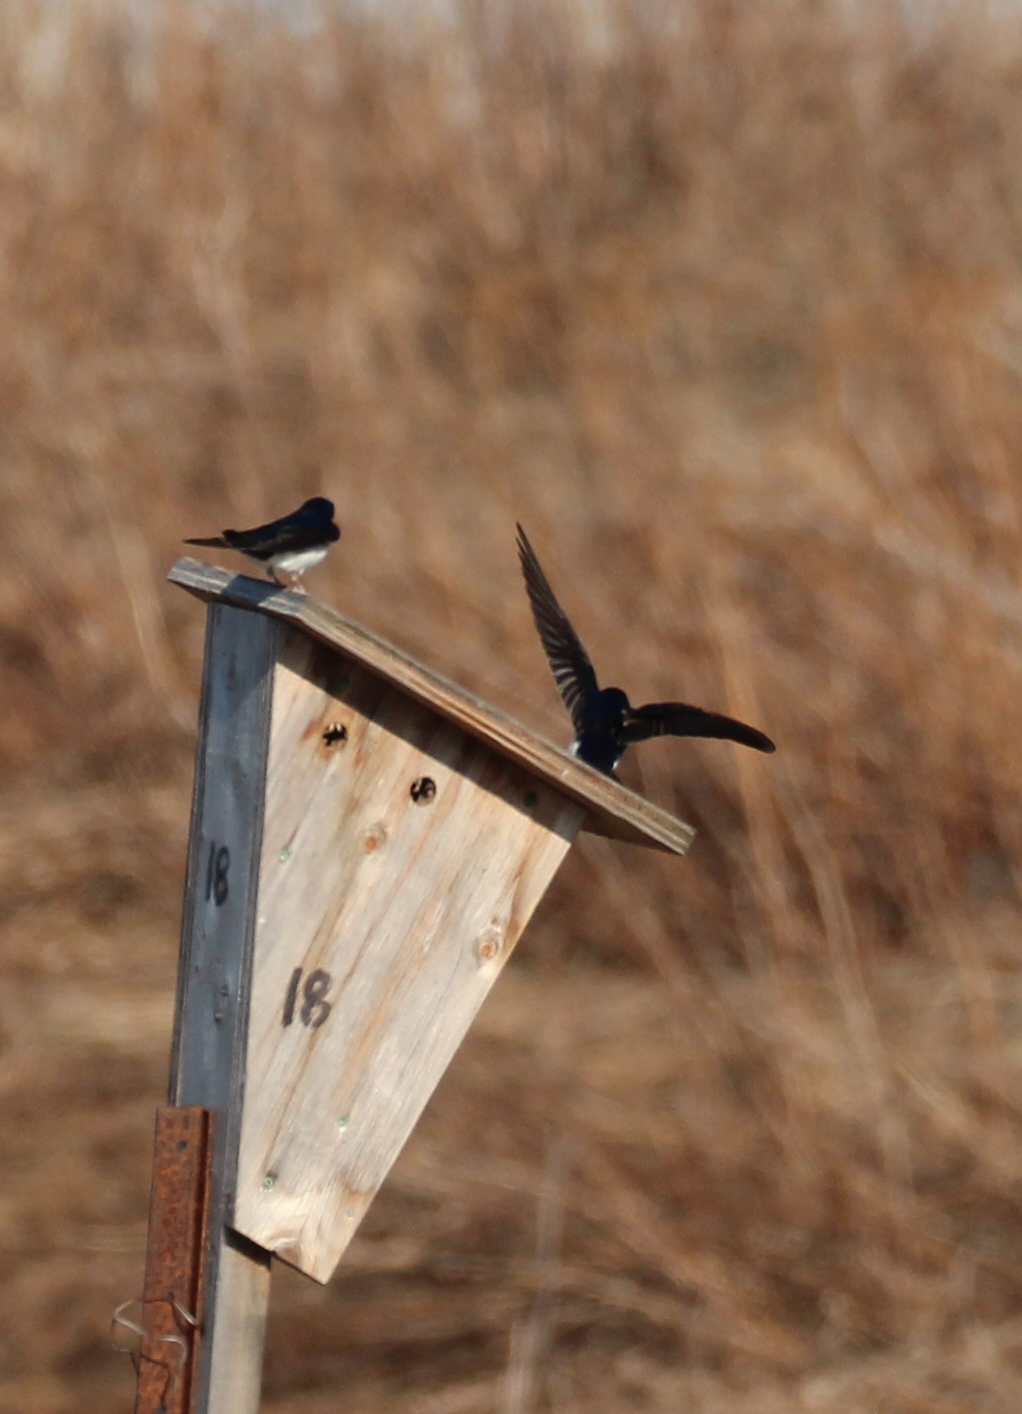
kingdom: Animalia
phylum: Chordata
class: Aves
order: Passeriformes
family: Hirundinidae
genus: Tachycineta
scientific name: Tachycineta bicolor
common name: Tree swallow
